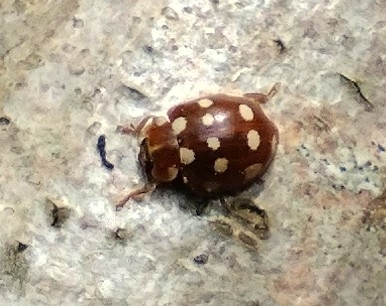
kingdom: Animalia
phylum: Arthropoda
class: Insecta
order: Coleoptera
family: Coccinellidae
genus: Calvia
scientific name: Calvia quatuordecimguttata
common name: Cream-spot ladybird
